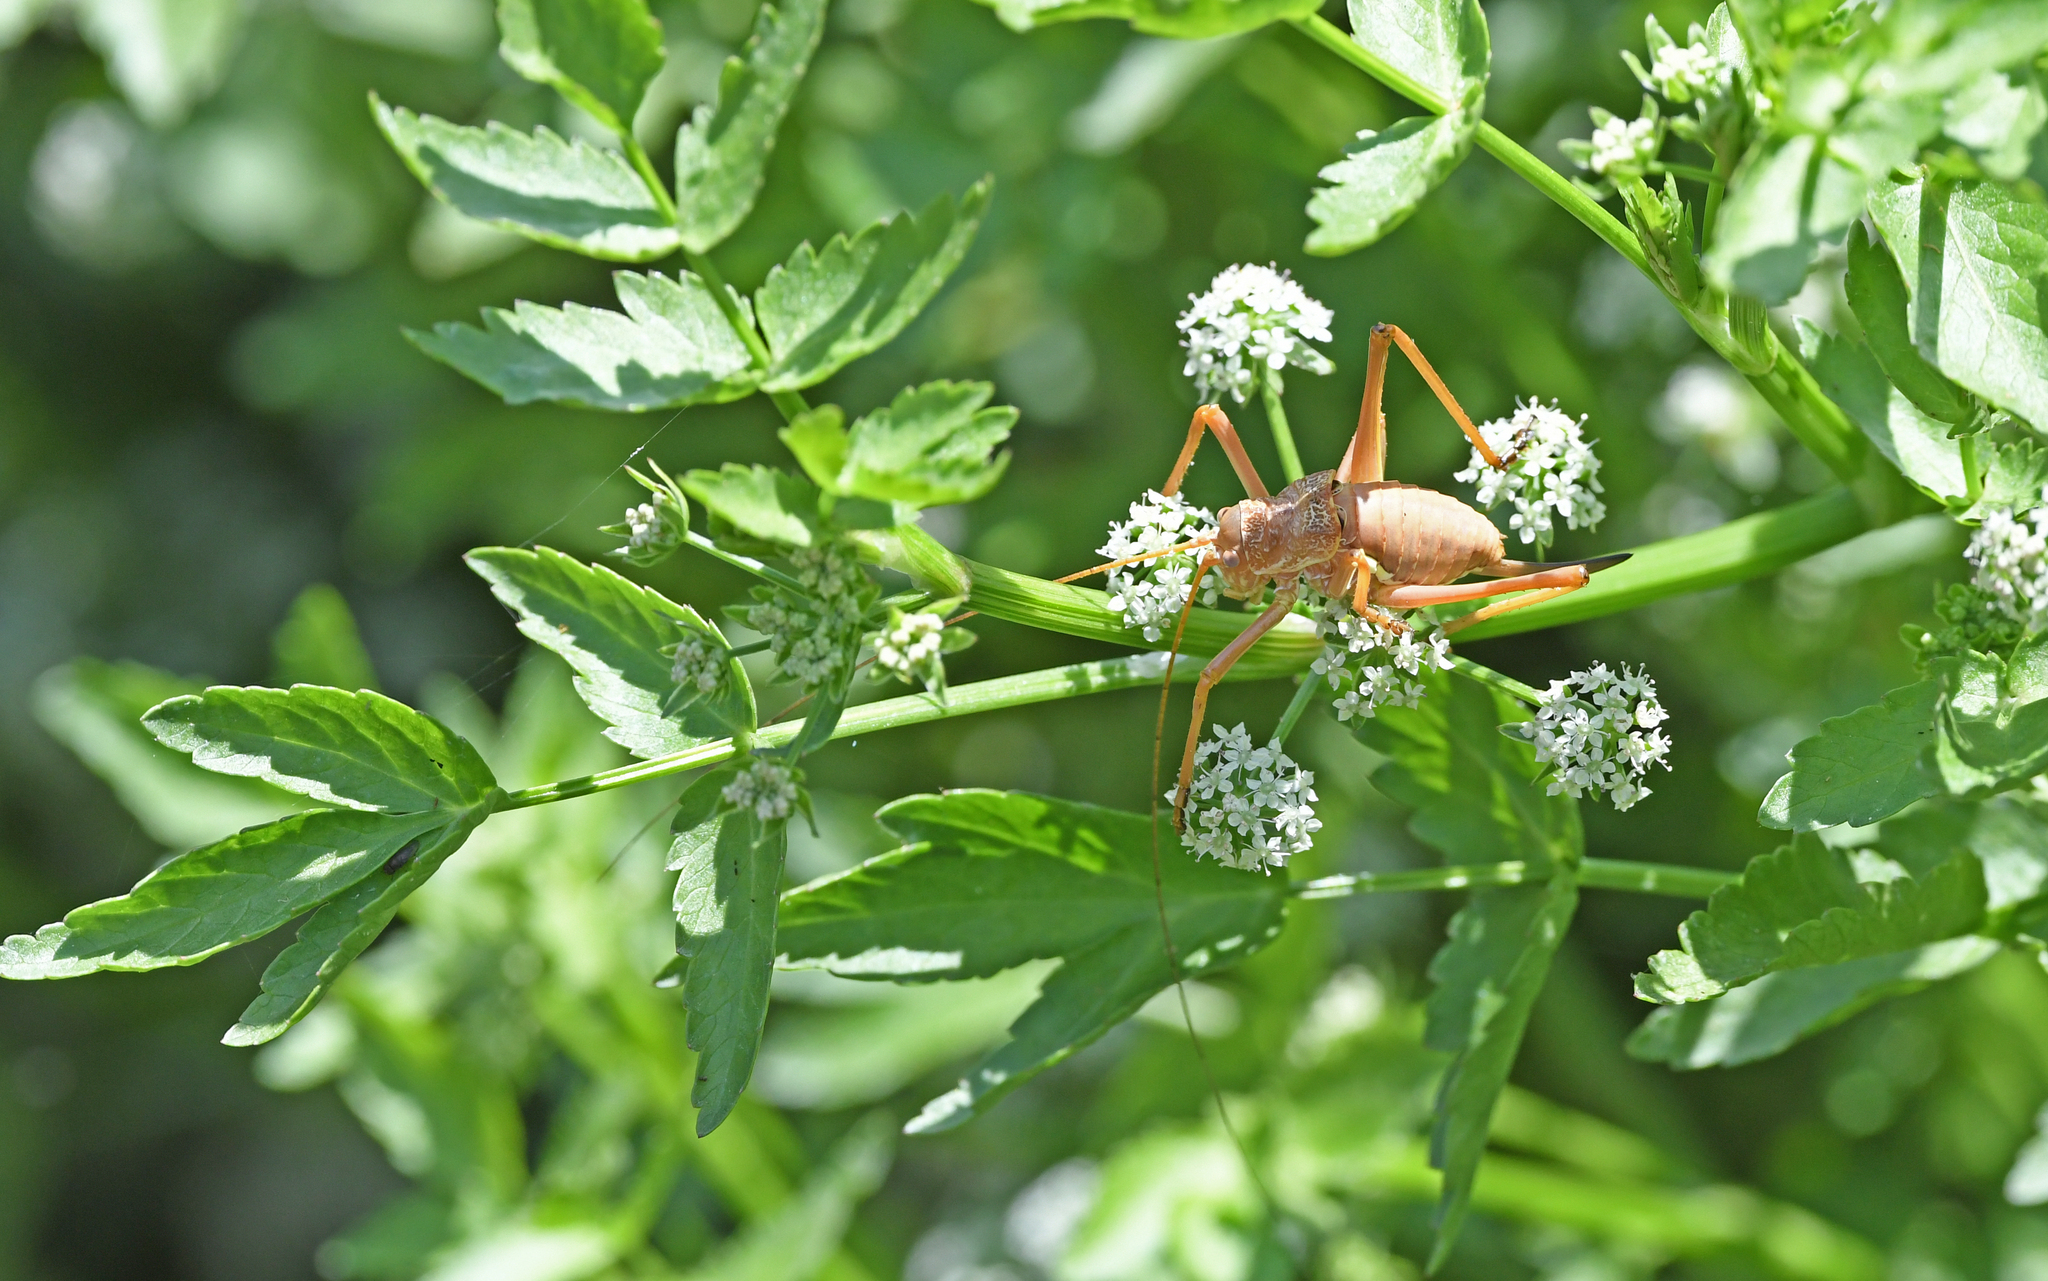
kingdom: Animalia
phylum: Arthropoda
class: Insecta
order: Orthoptera
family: Tettigoniidae
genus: Uromenus
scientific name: Uromenus brevicollis
